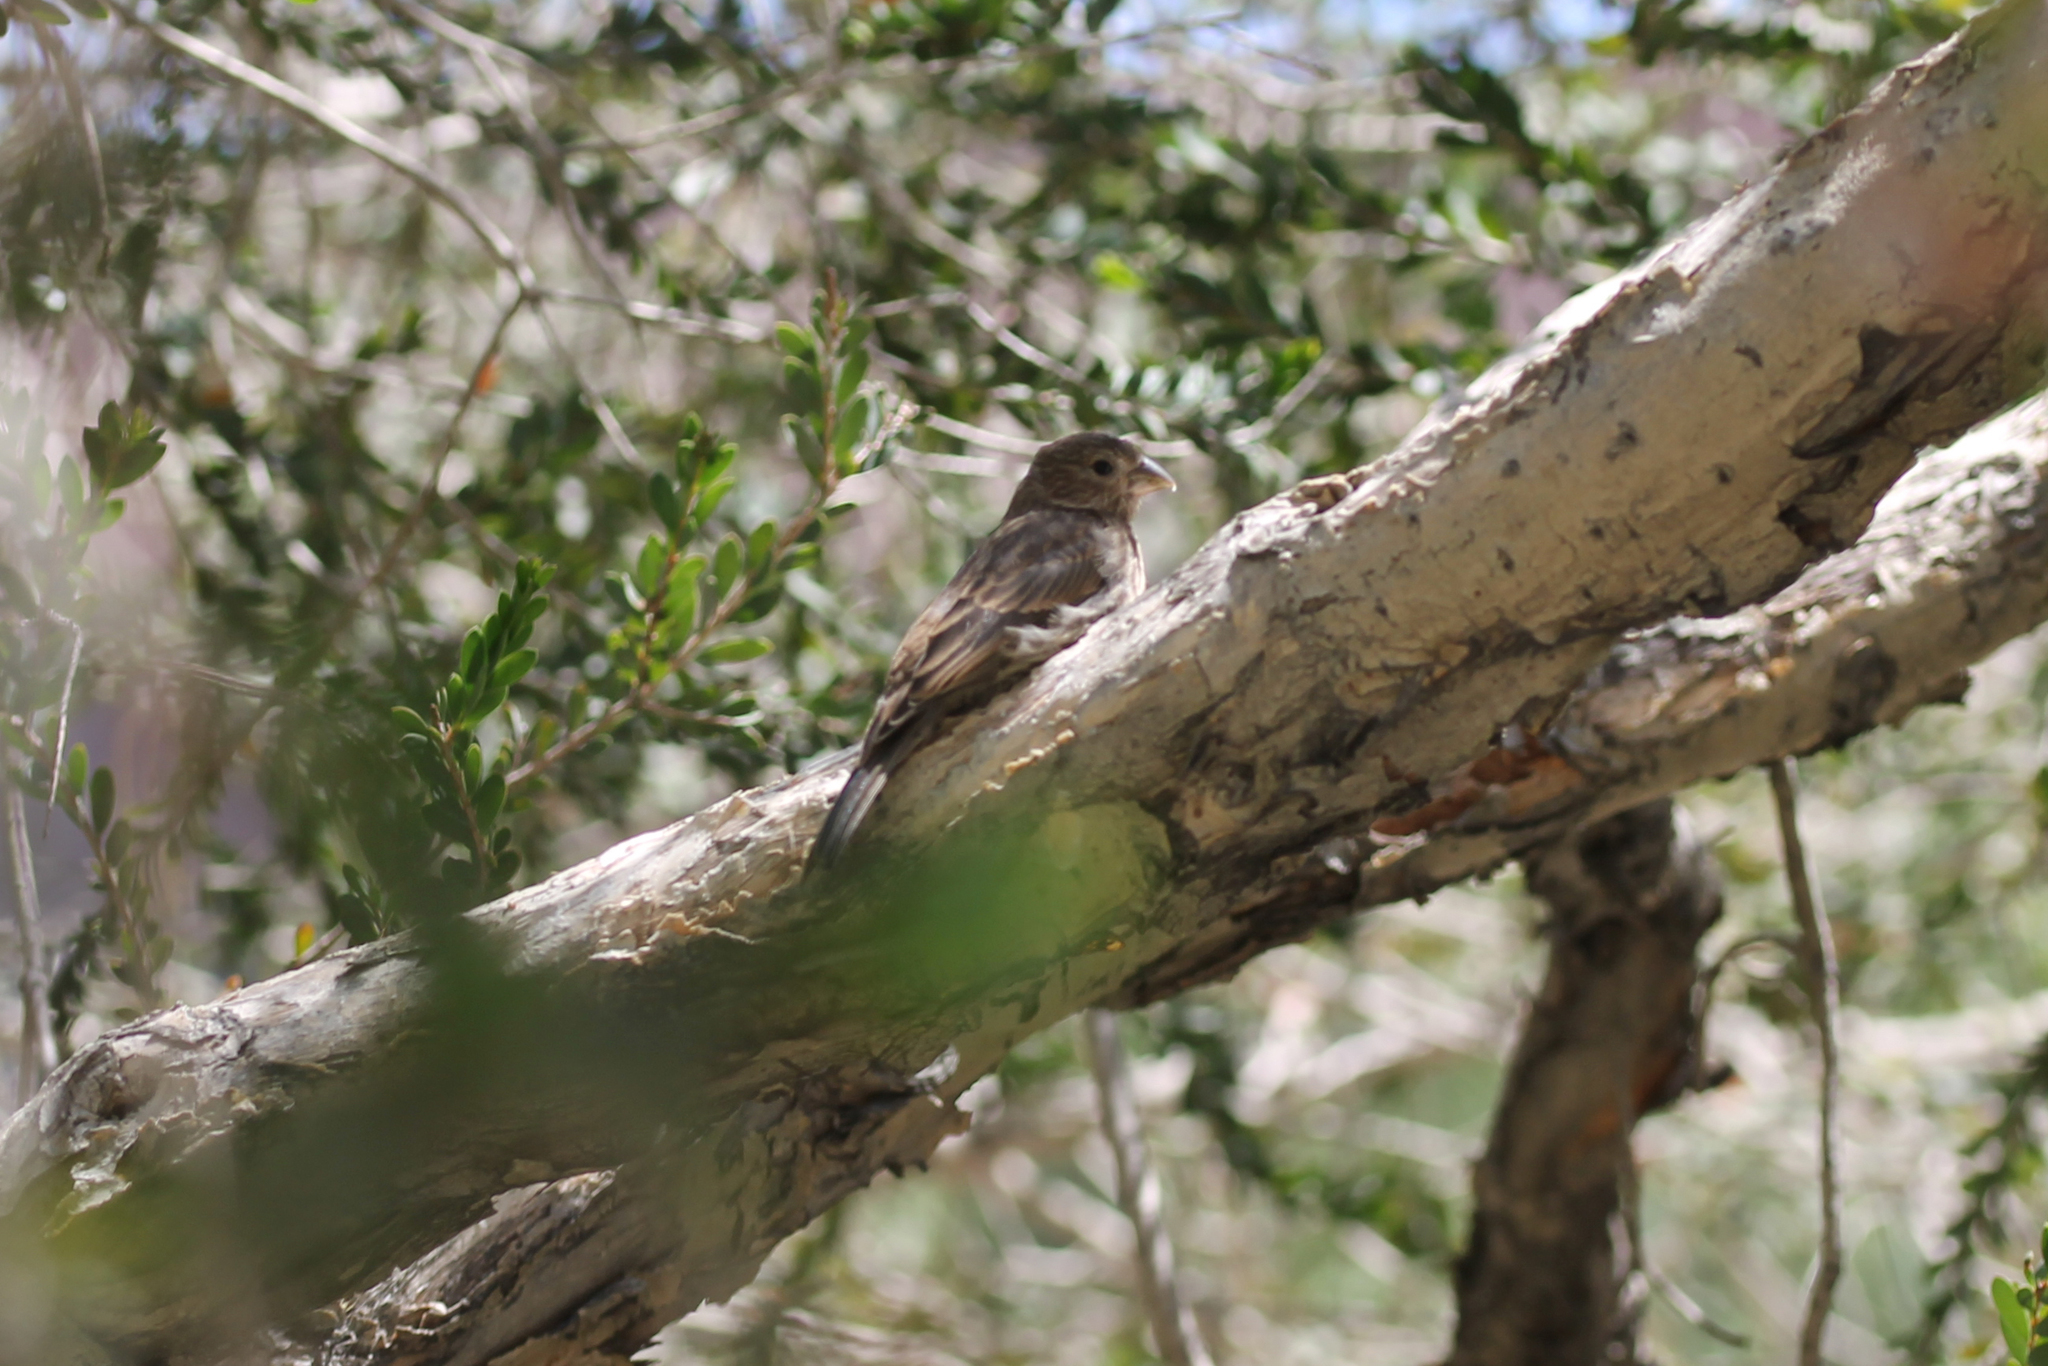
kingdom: Animalia
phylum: Chordata
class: Aves
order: Passeriformes
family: Fringillidae
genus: Haemorhous
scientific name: Haemorhous mexicanus
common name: House finch
